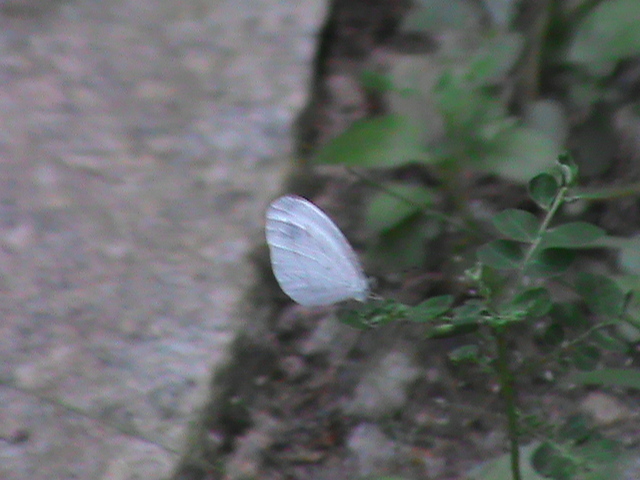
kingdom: Animalia
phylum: Arthropoda
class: Insecta
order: Lepidoptera
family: Pieridae
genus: Leptosia
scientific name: Leptosia nina
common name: Psyche
